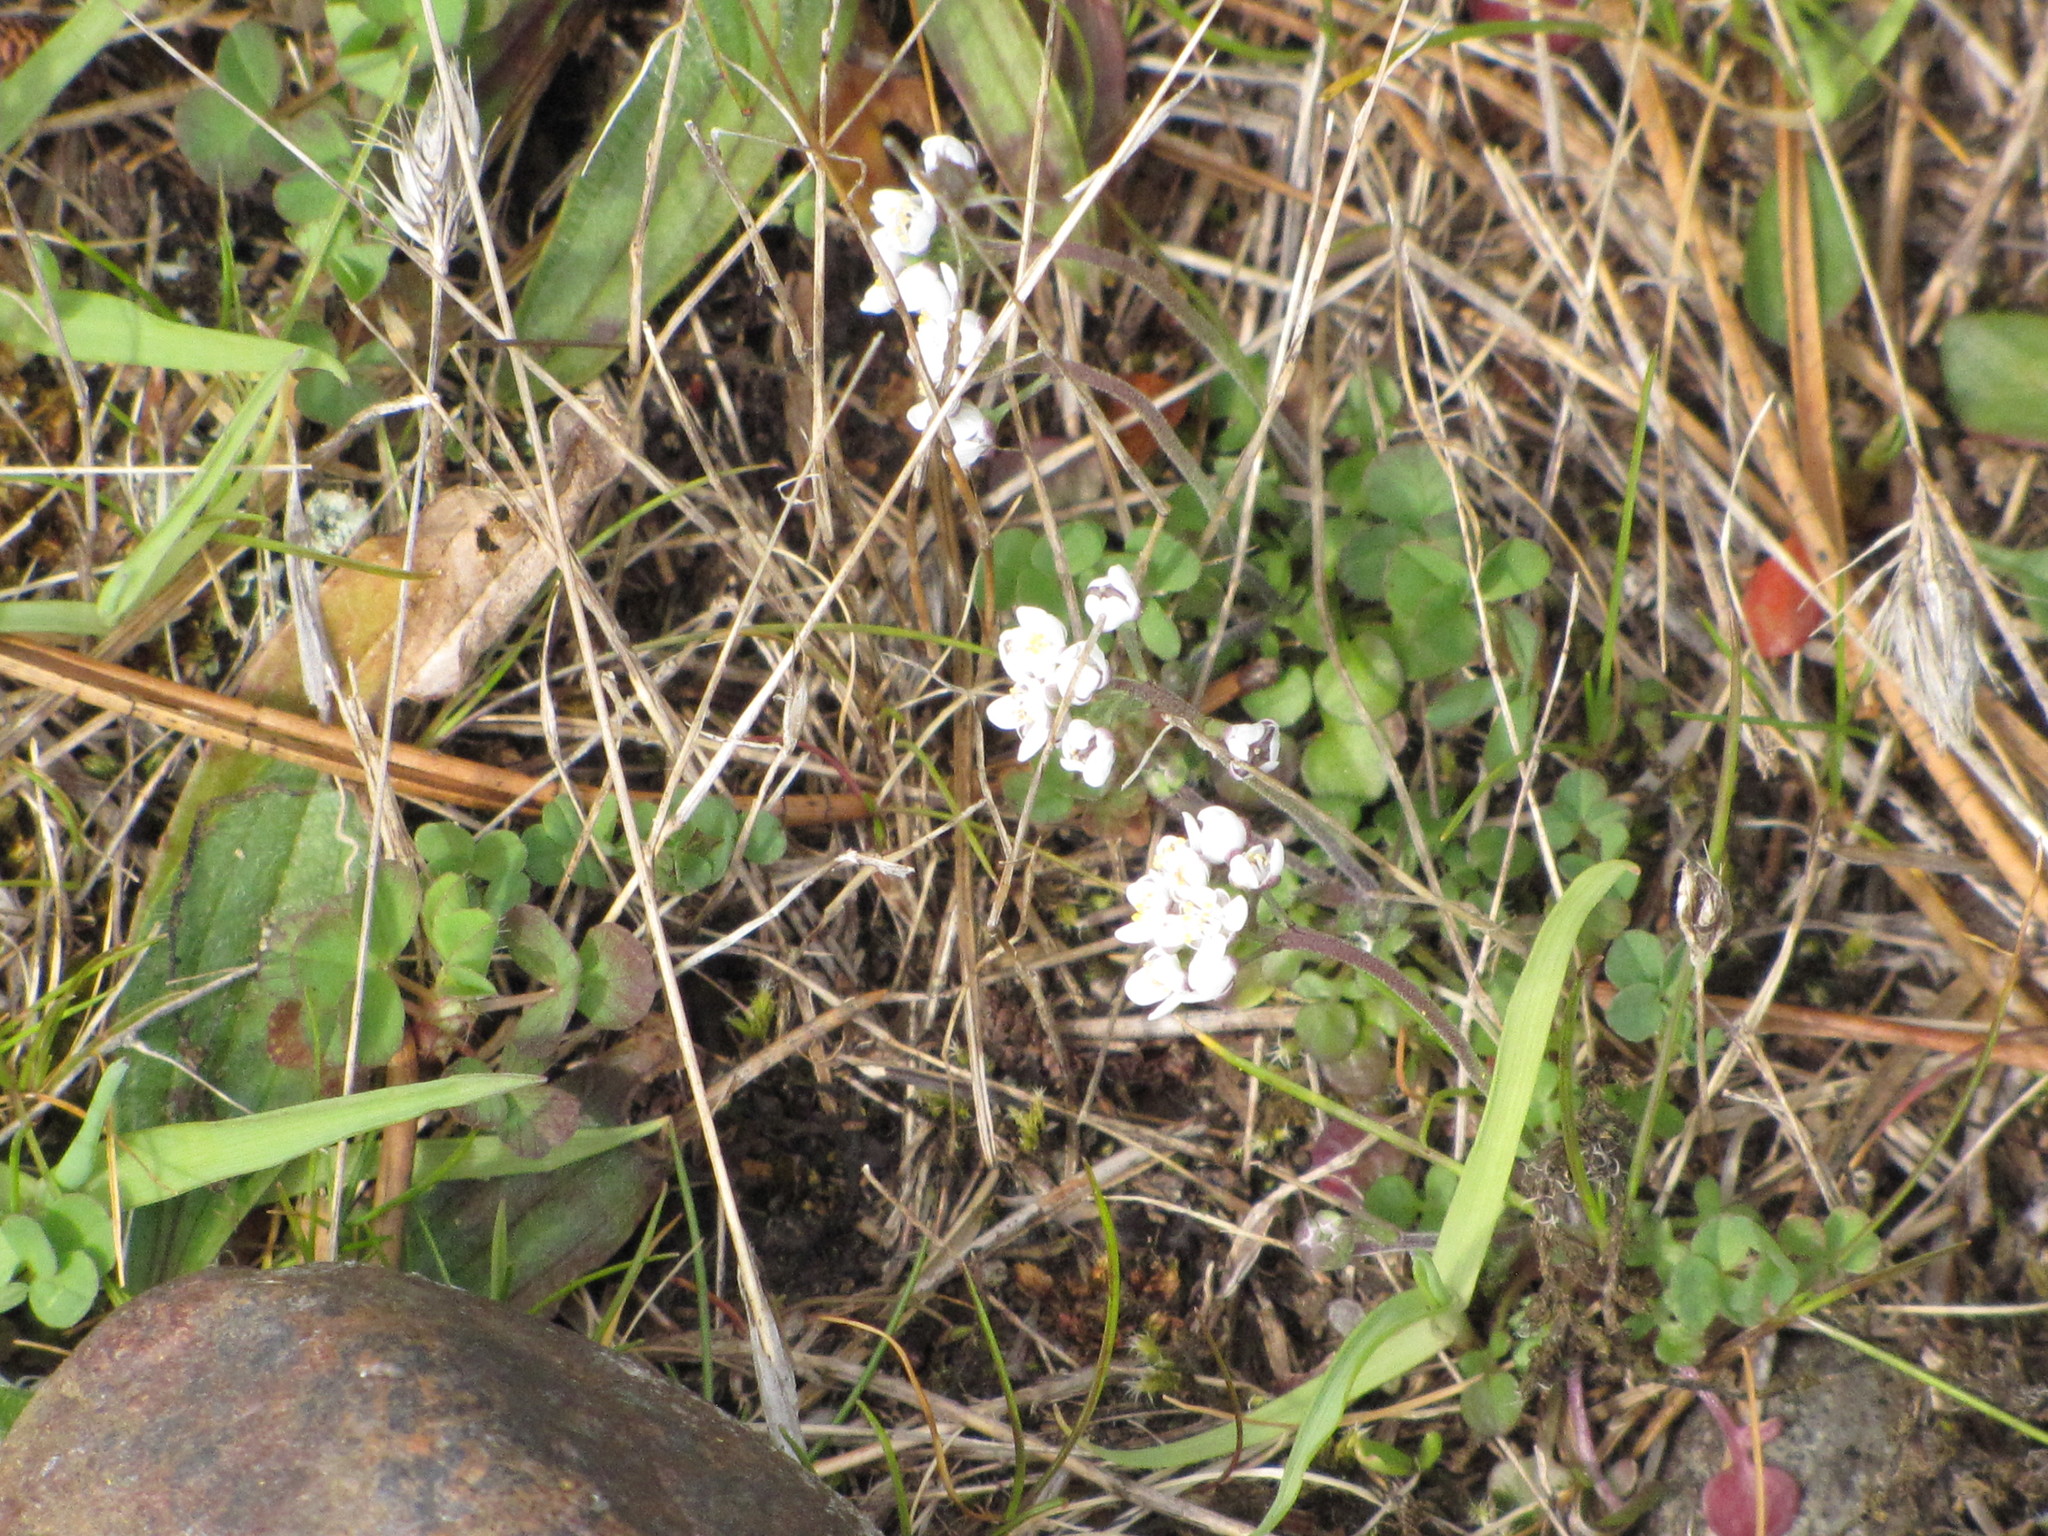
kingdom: Plantae
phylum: Tracheophyta
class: Magnoliopsida
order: Brassicales
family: Brassicaceae
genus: Teesdalia
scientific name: Teesdalia nudicaulis
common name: Shepherd's cress
